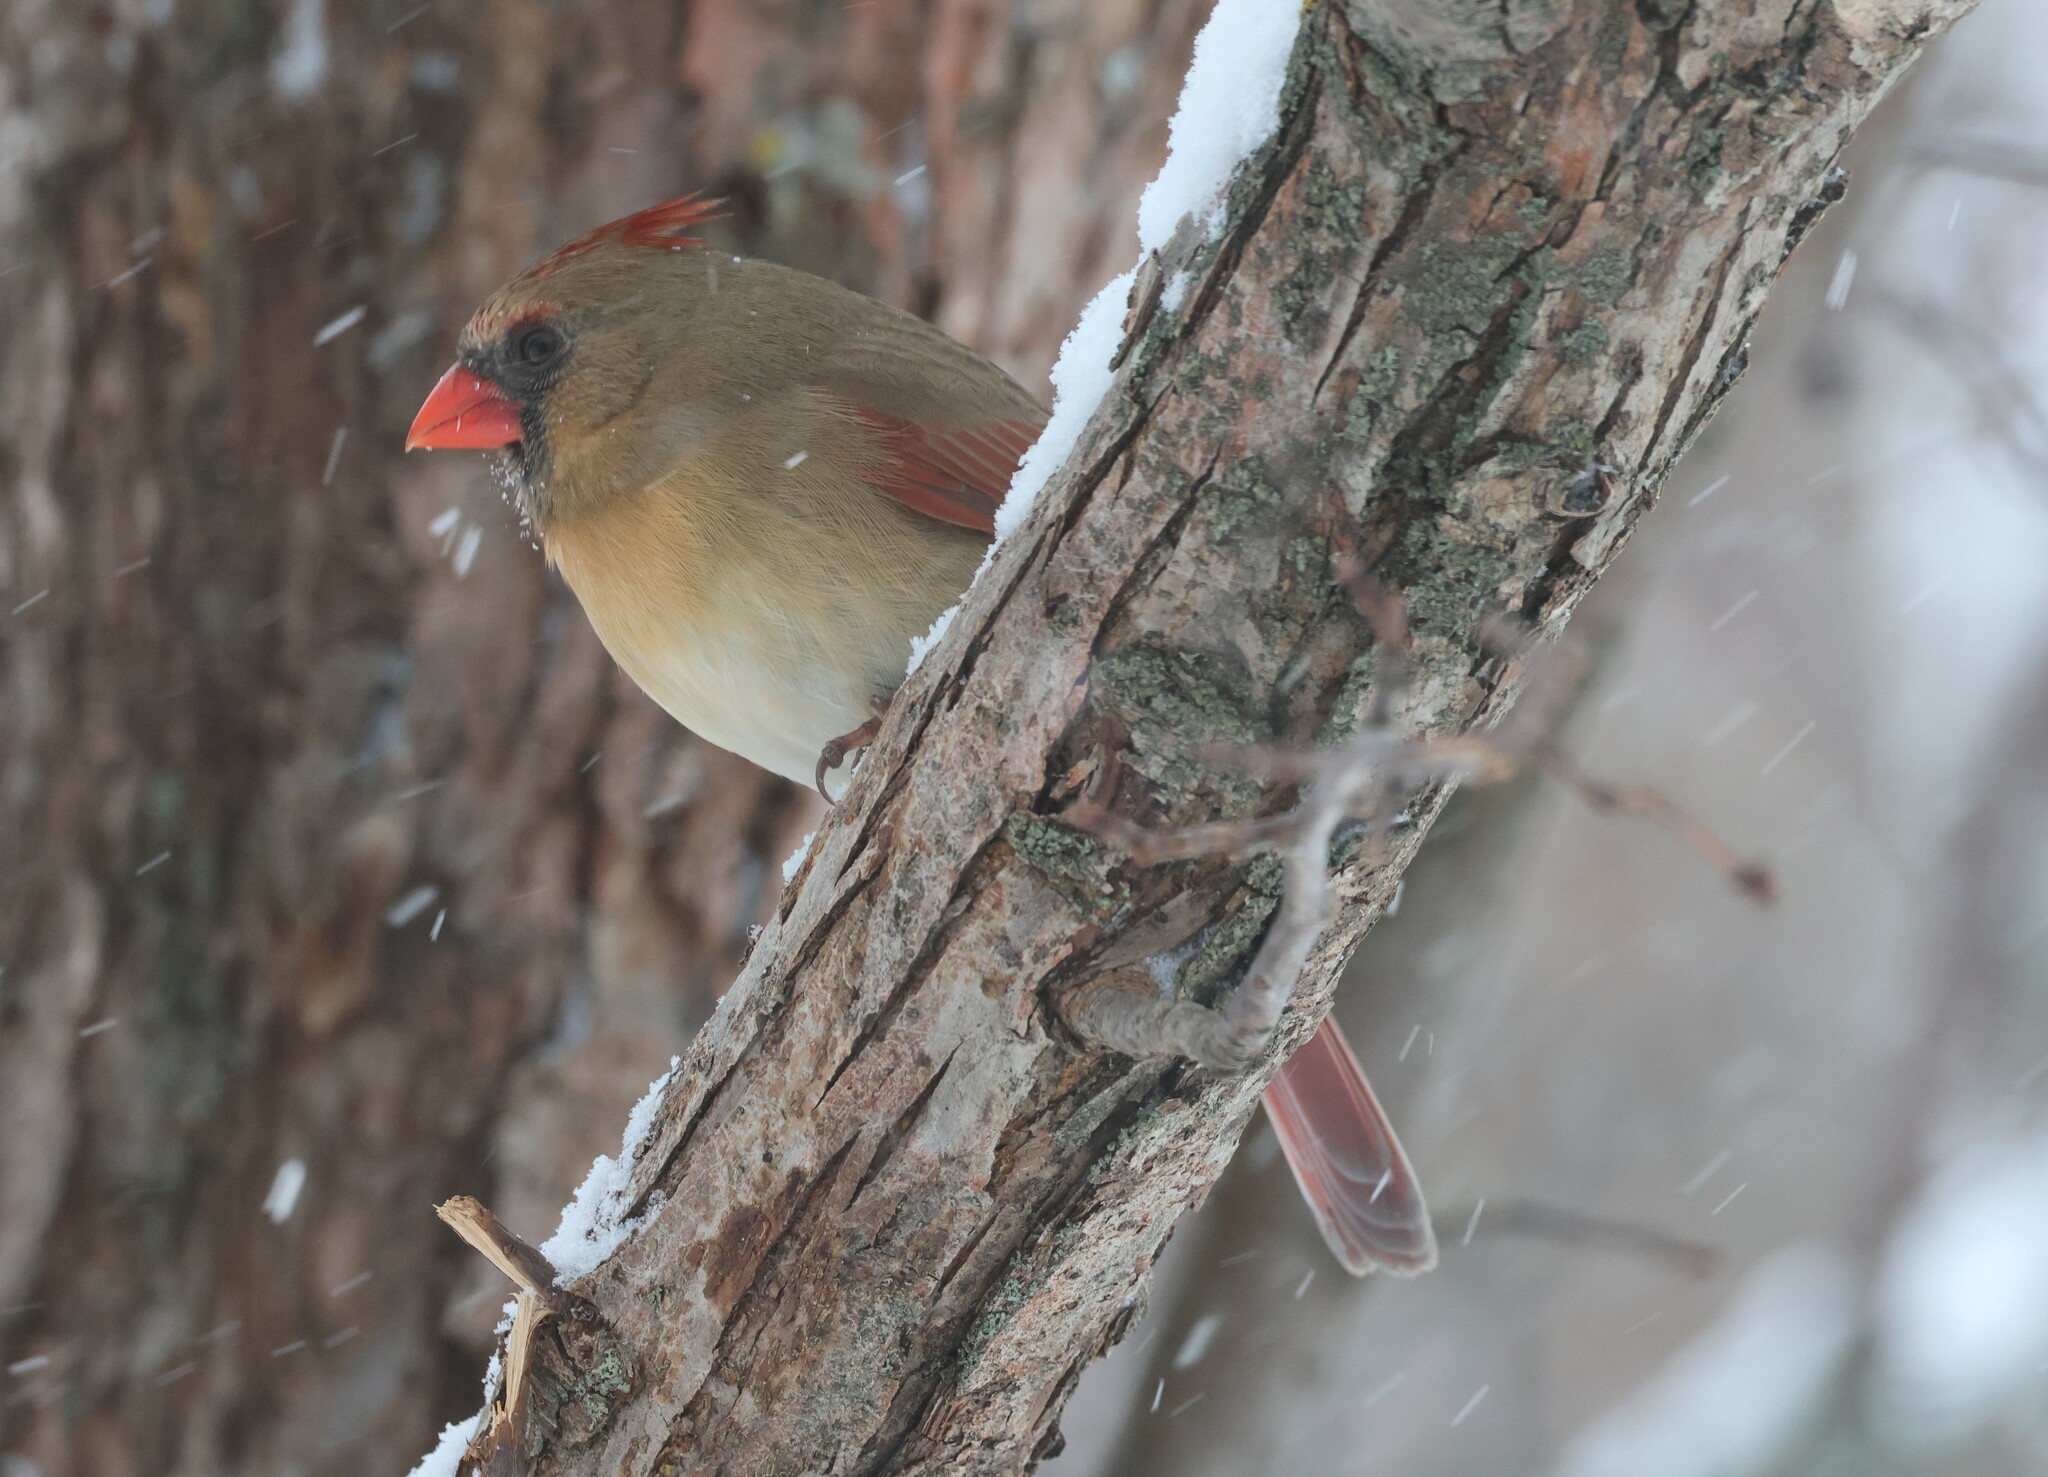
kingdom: Animalia
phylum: Chordata
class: Aves
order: Passeriformes
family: Cardinalidae
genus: Cardinalis
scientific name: Cardinalis cardinalis
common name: Northern cardinal
